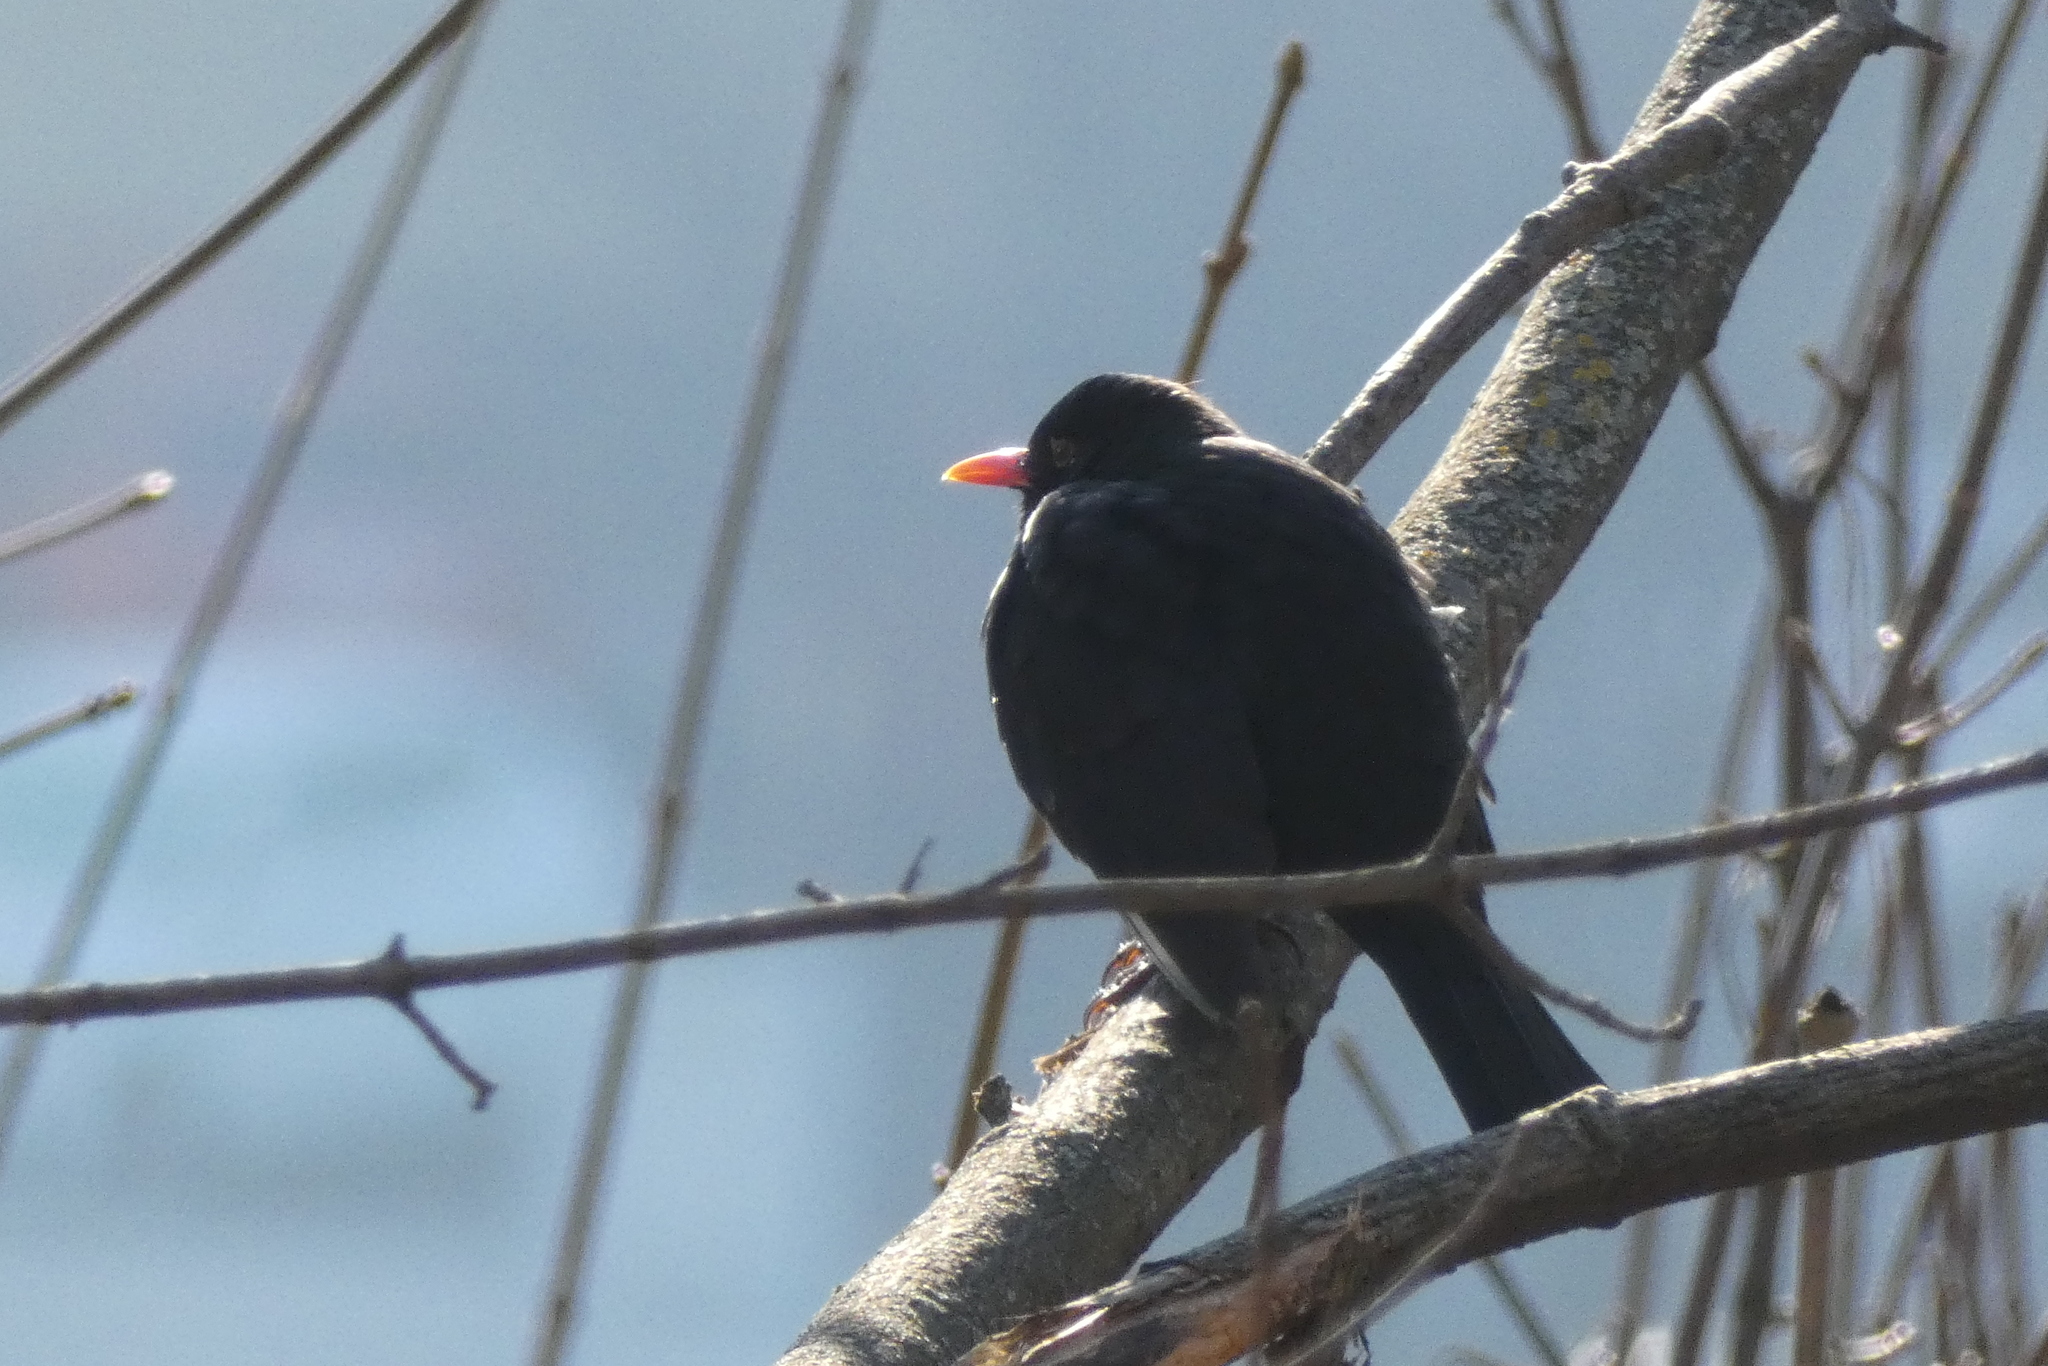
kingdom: Animalia
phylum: Chordata
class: Aves
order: Passeriformes
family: Turdidae
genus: Turdus
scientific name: Turdus merula
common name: Common blackbird
